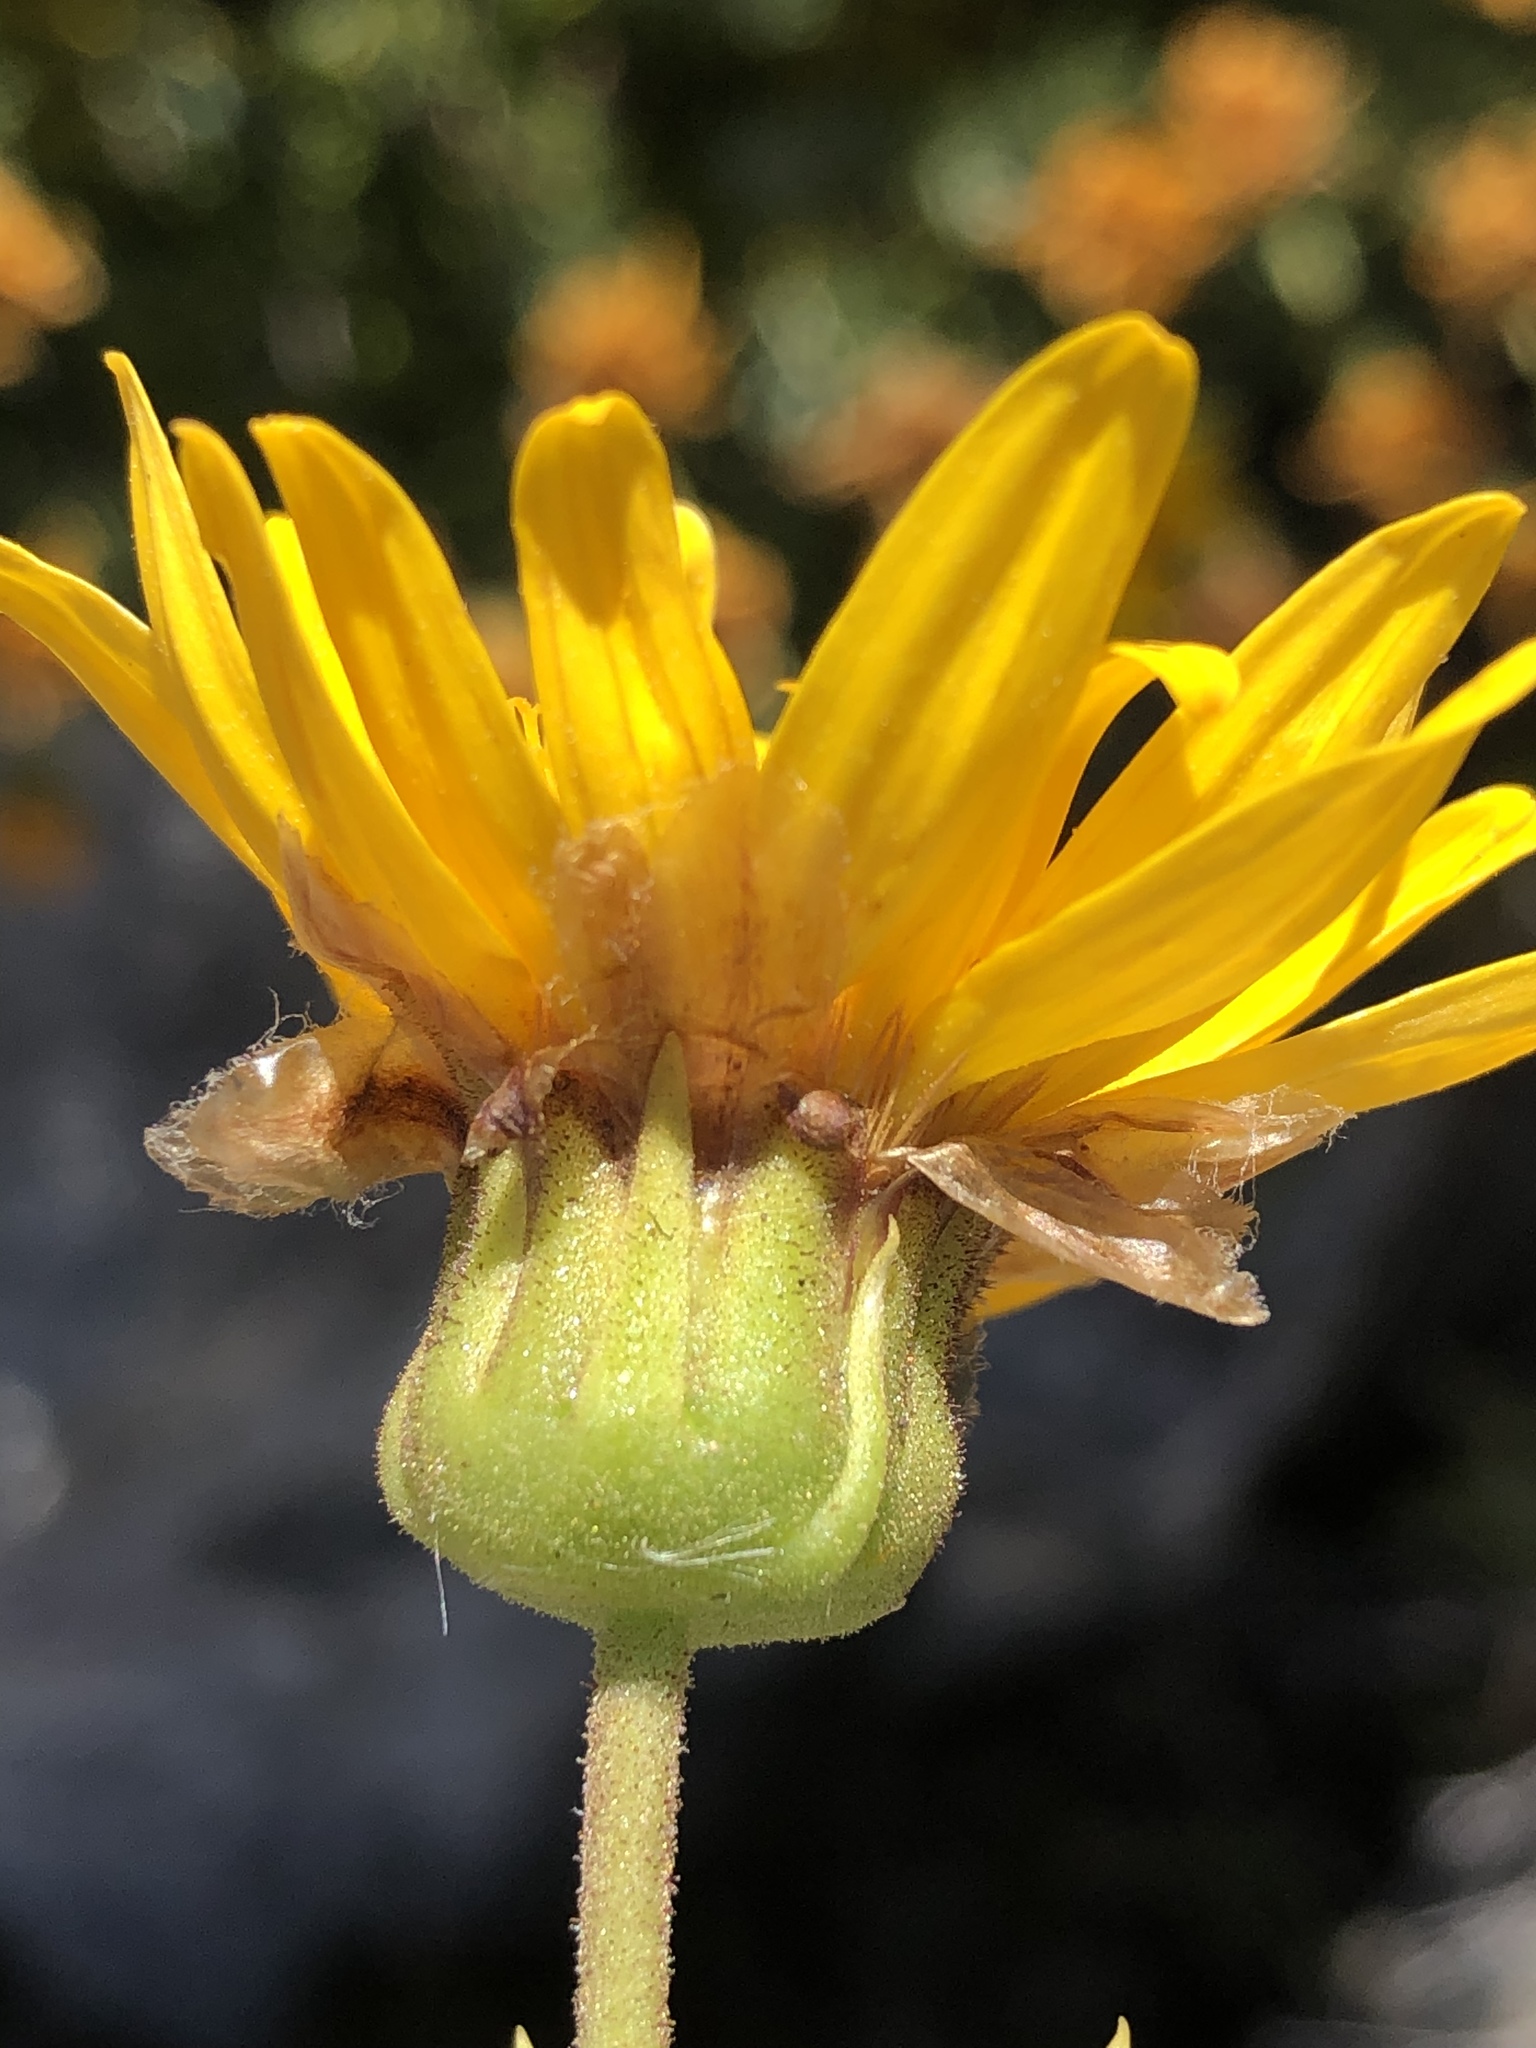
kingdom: Plantae
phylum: Tracheophyta
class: Magnoliopsida
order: Asterales
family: Asteraceae
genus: Heterolepis
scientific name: Heterolepis aliena
